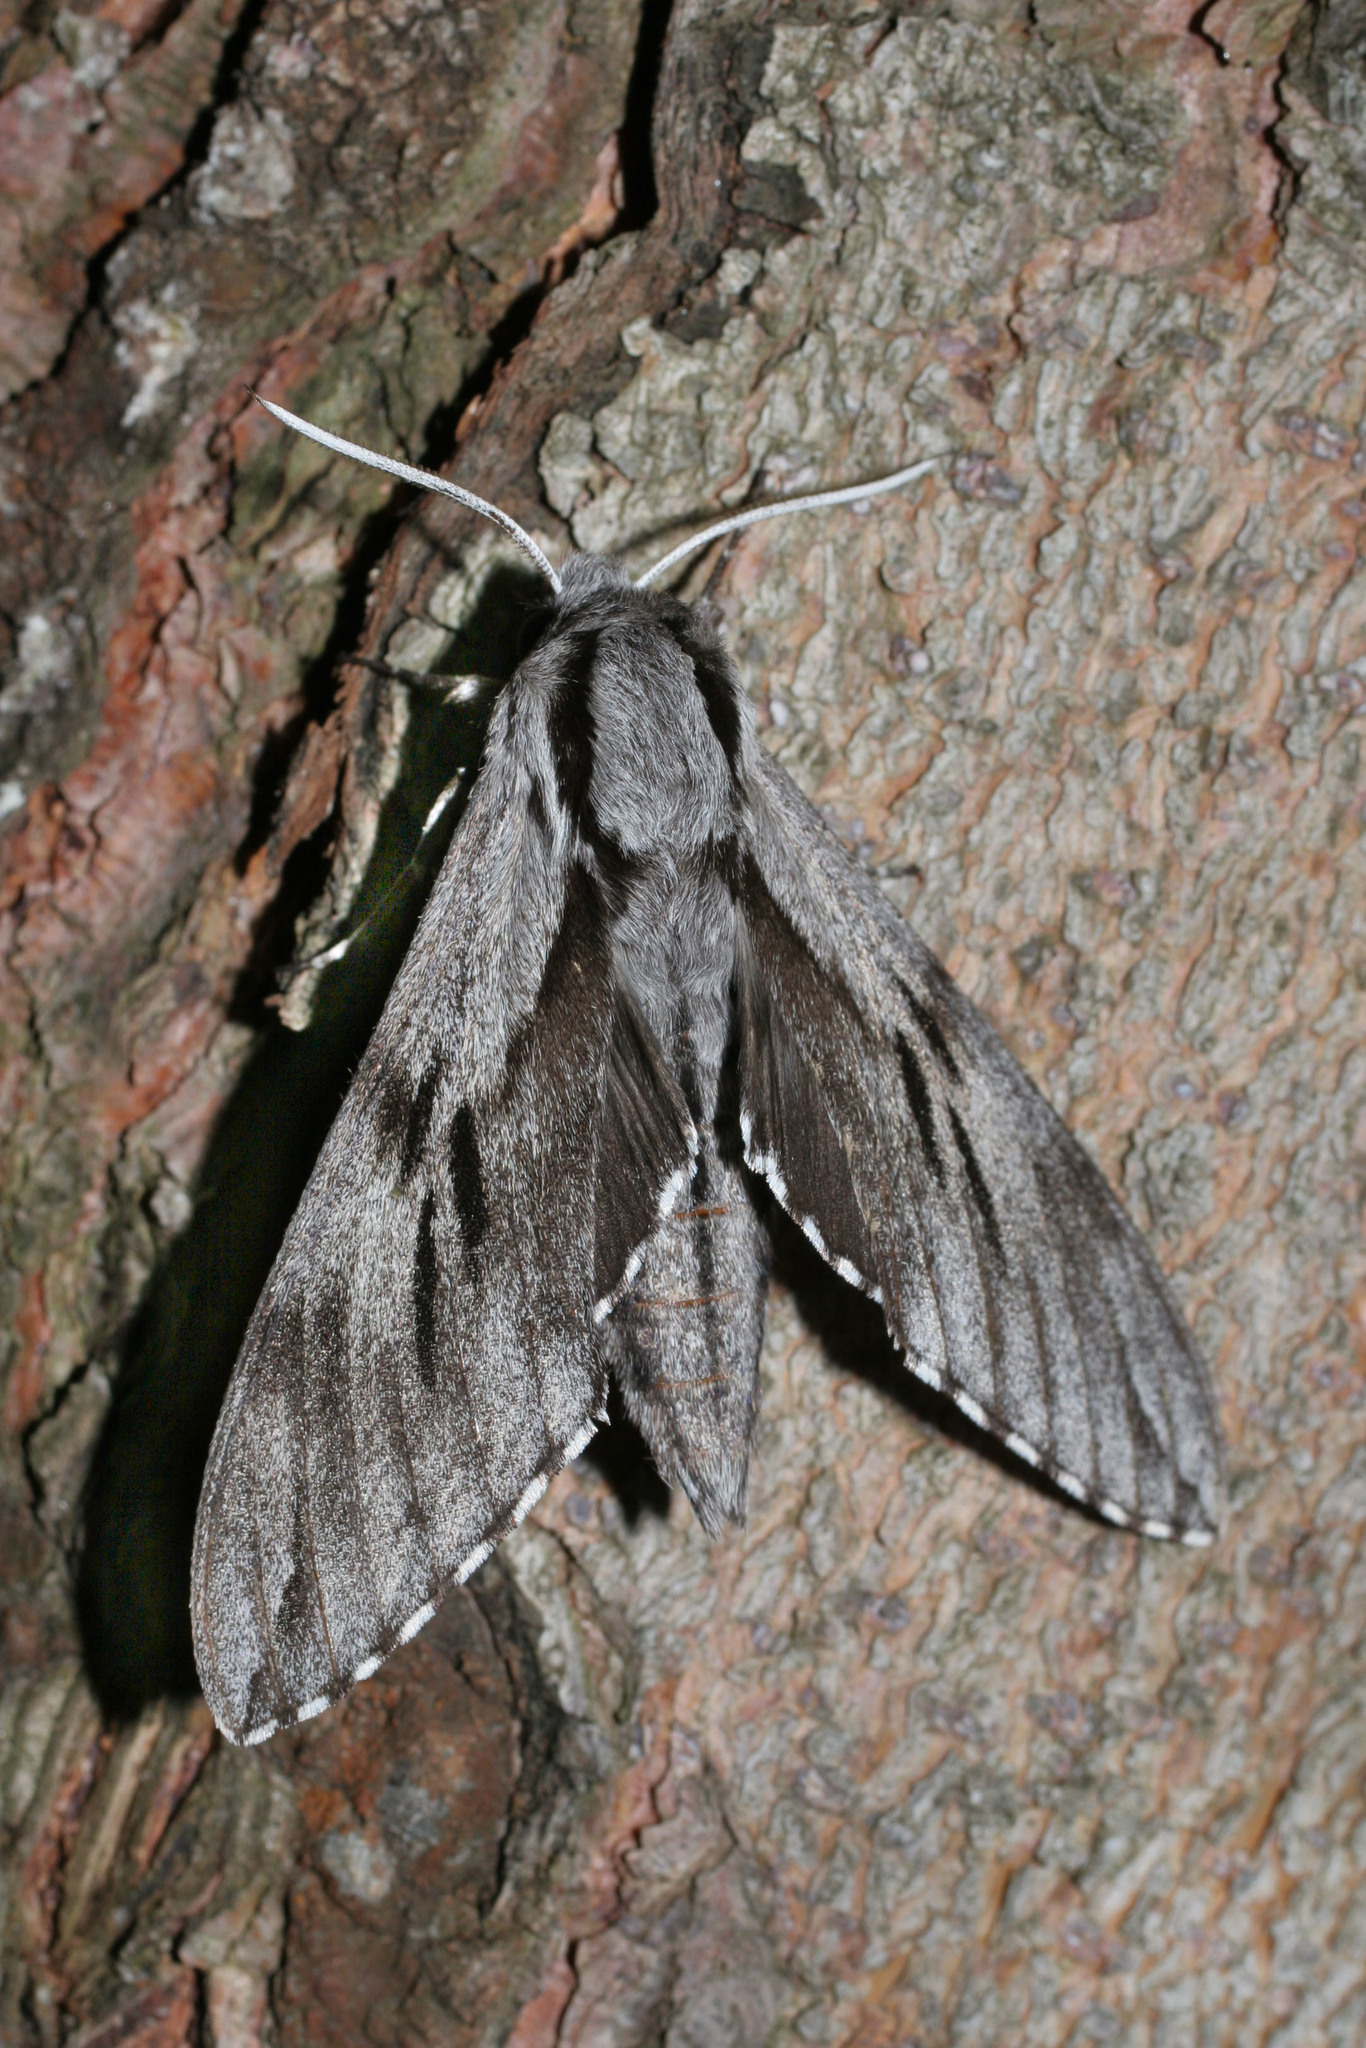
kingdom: Animalia
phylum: Arthropoda
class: Insecta
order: Lepidoptera
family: Sphingidae
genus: Sphinx
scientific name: Sphinx pinastri
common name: Pine hawk-moth
